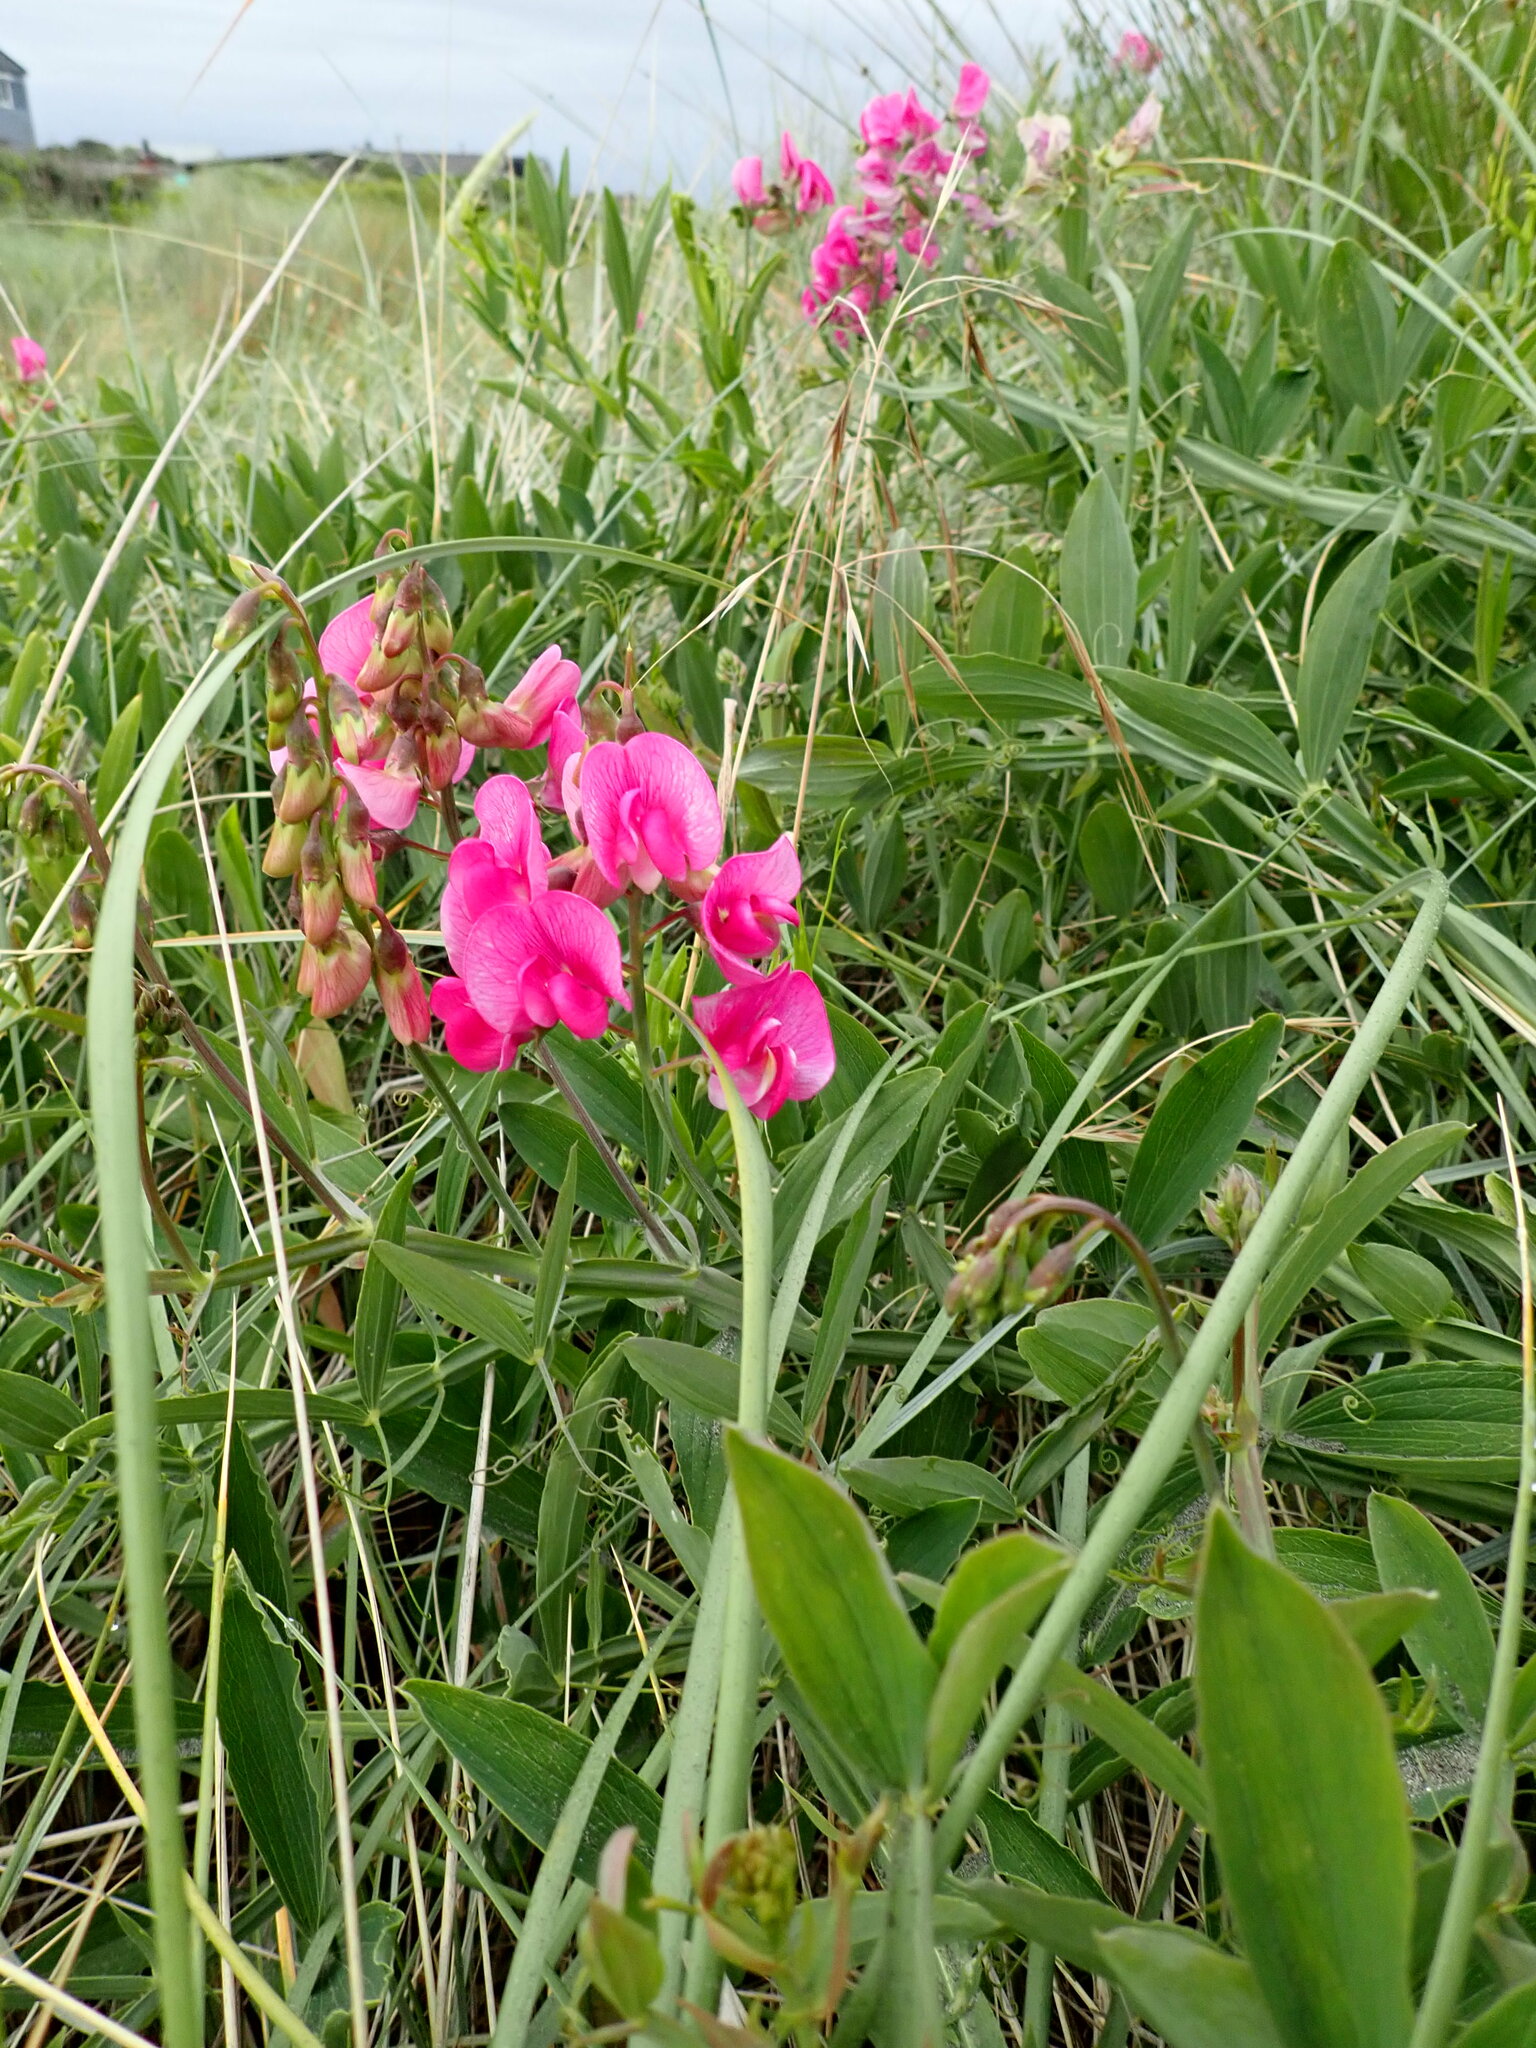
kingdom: Plantae
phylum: Tracheophyta
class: Magnoliopsida
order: Fabales
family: Fabaceae
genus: Lathyrus
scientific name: Lathyrus latifolius
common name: Perennial pea
